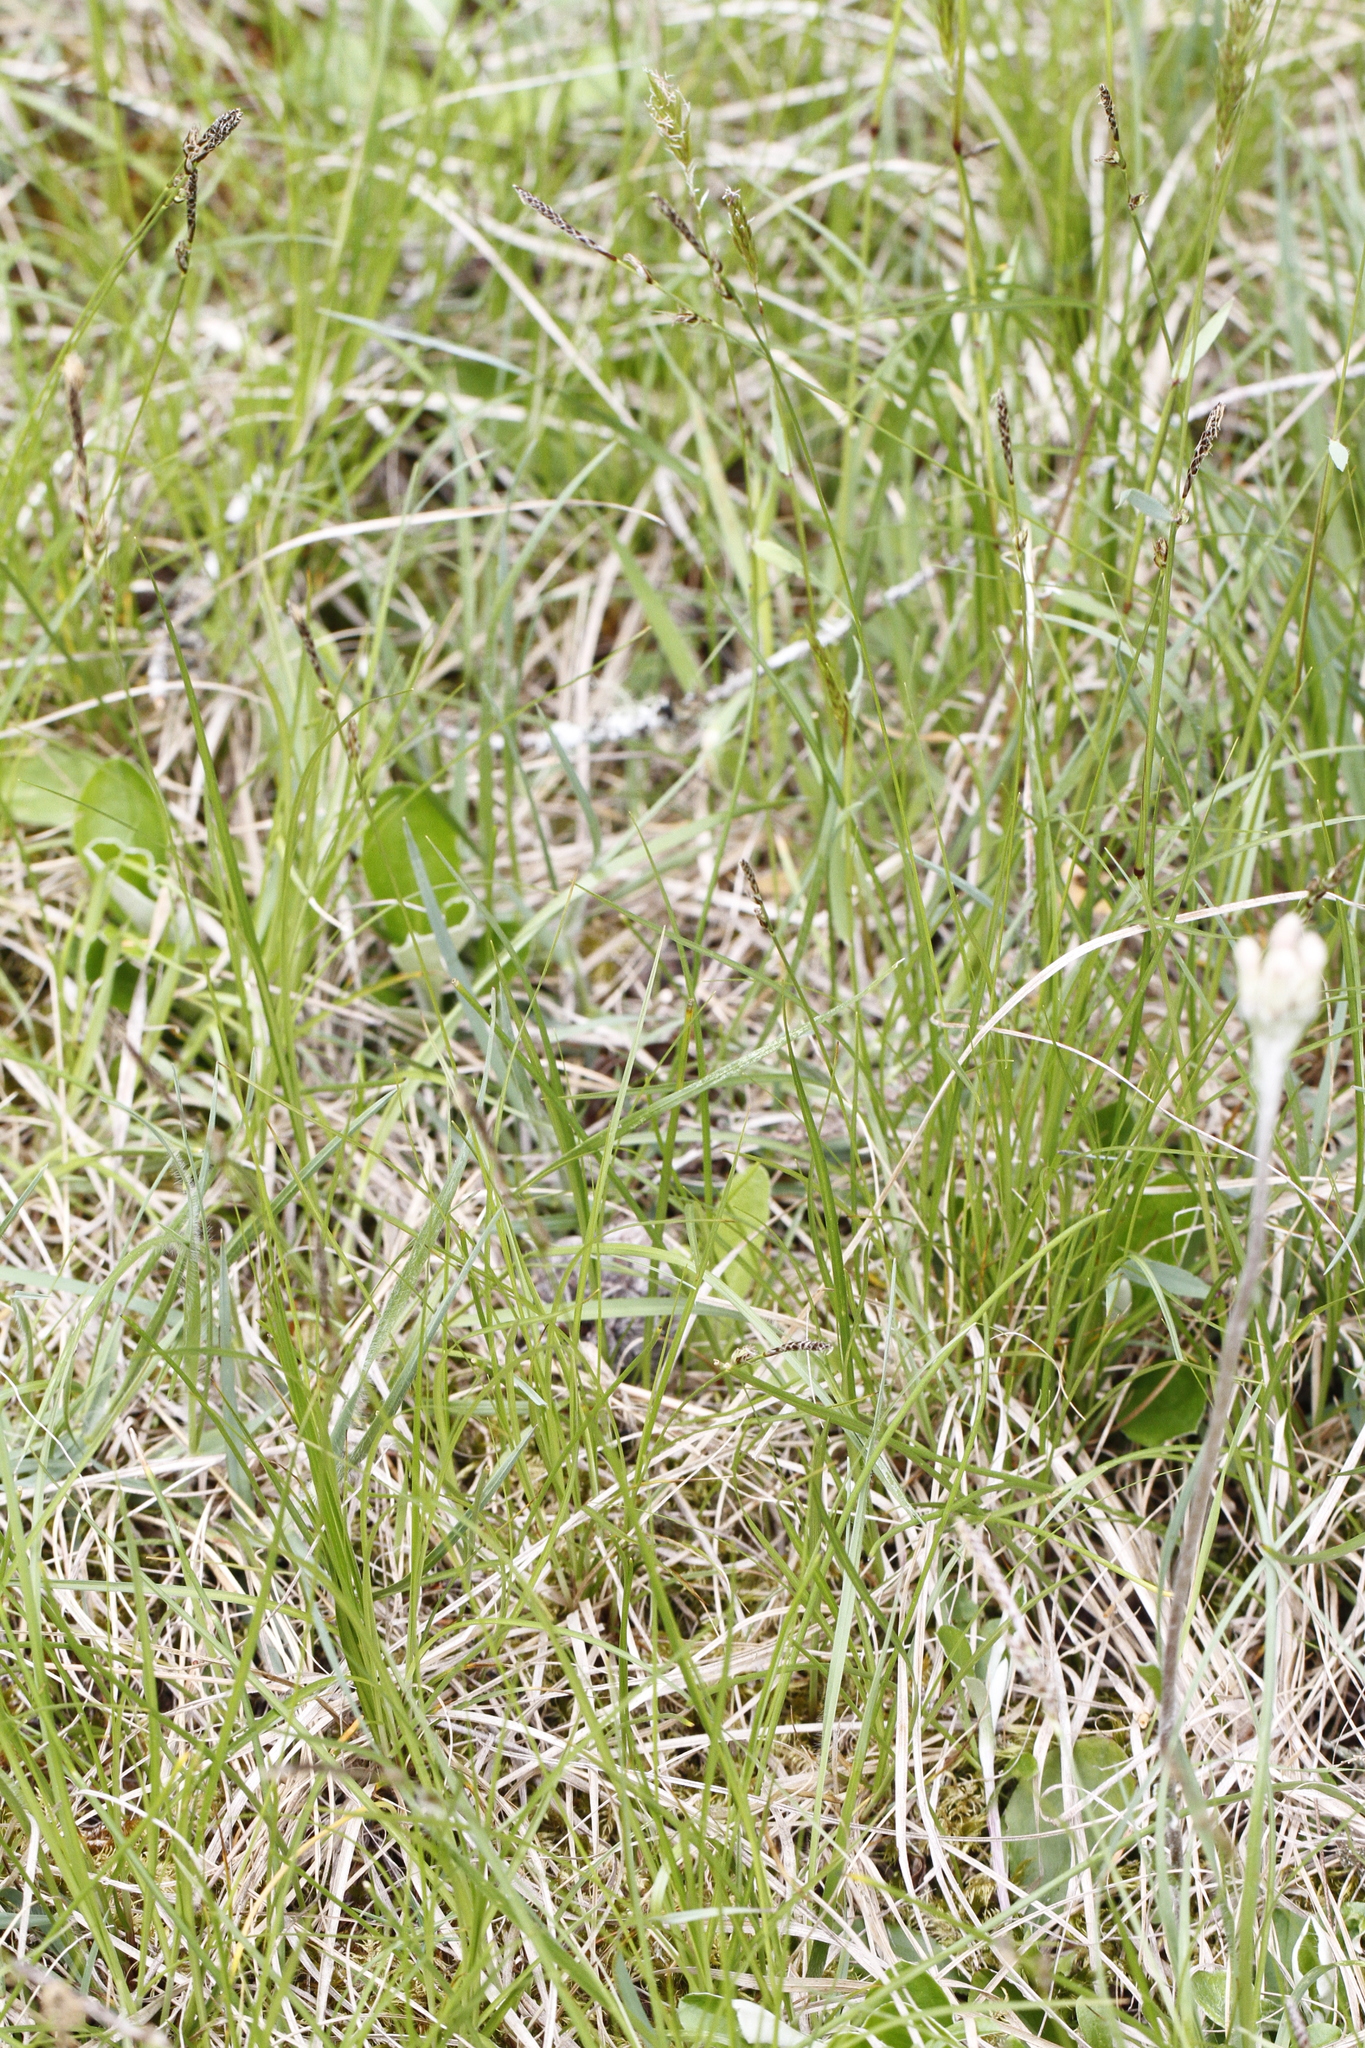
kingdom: Plantae
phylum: Tracheophyta
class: Liliopsida
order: Poales
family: Cyperaceae
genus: Carex
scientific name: Carex inops
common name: Long-stolon sedge
